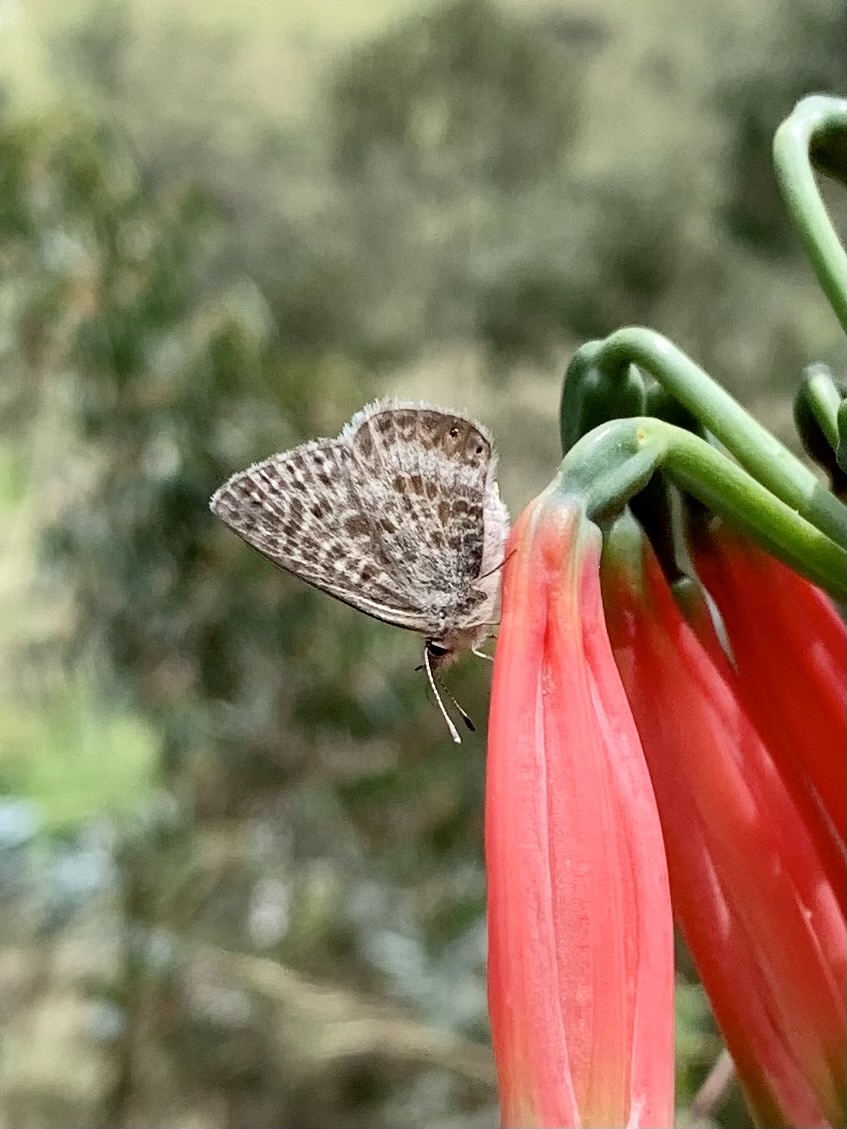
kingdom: Animalia
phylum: Arthropoda
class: Insecta
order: Lepidoptera
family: Lycaenidae
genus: Leptotes
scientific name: Leptotes
